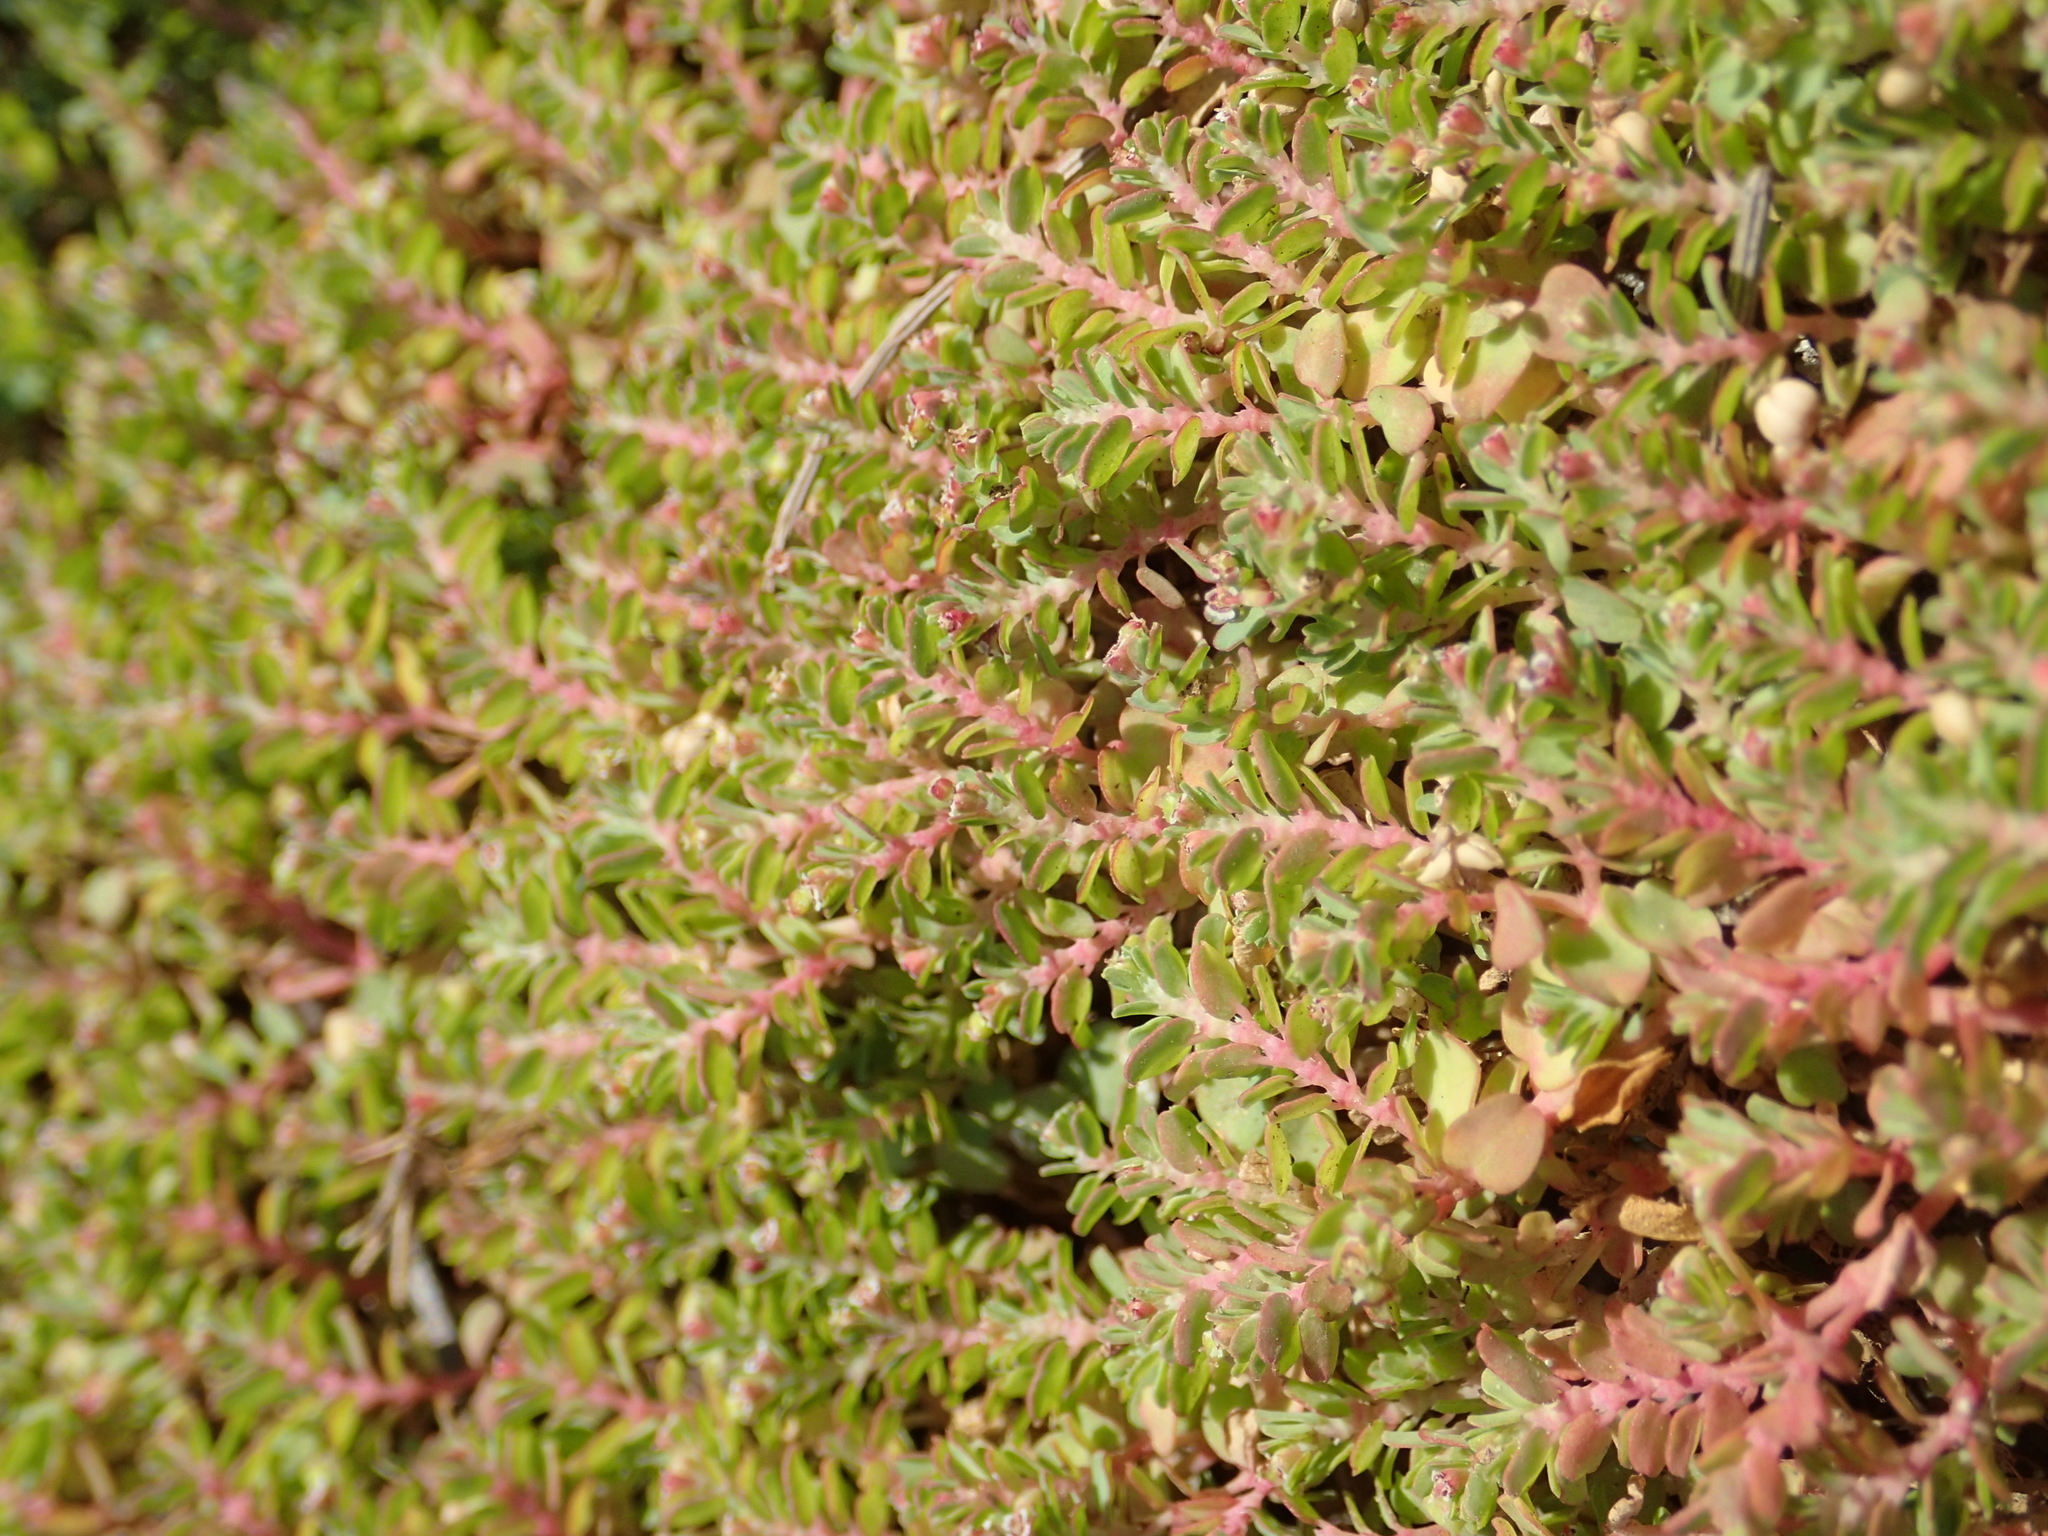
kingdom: Plantae
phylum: Tracheophyta
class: Magnoliopsida
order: Malpighiales
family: Euphorbiaceae
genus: Euphorbia
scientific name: Euphorbia serpens
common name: Matted sandmat
